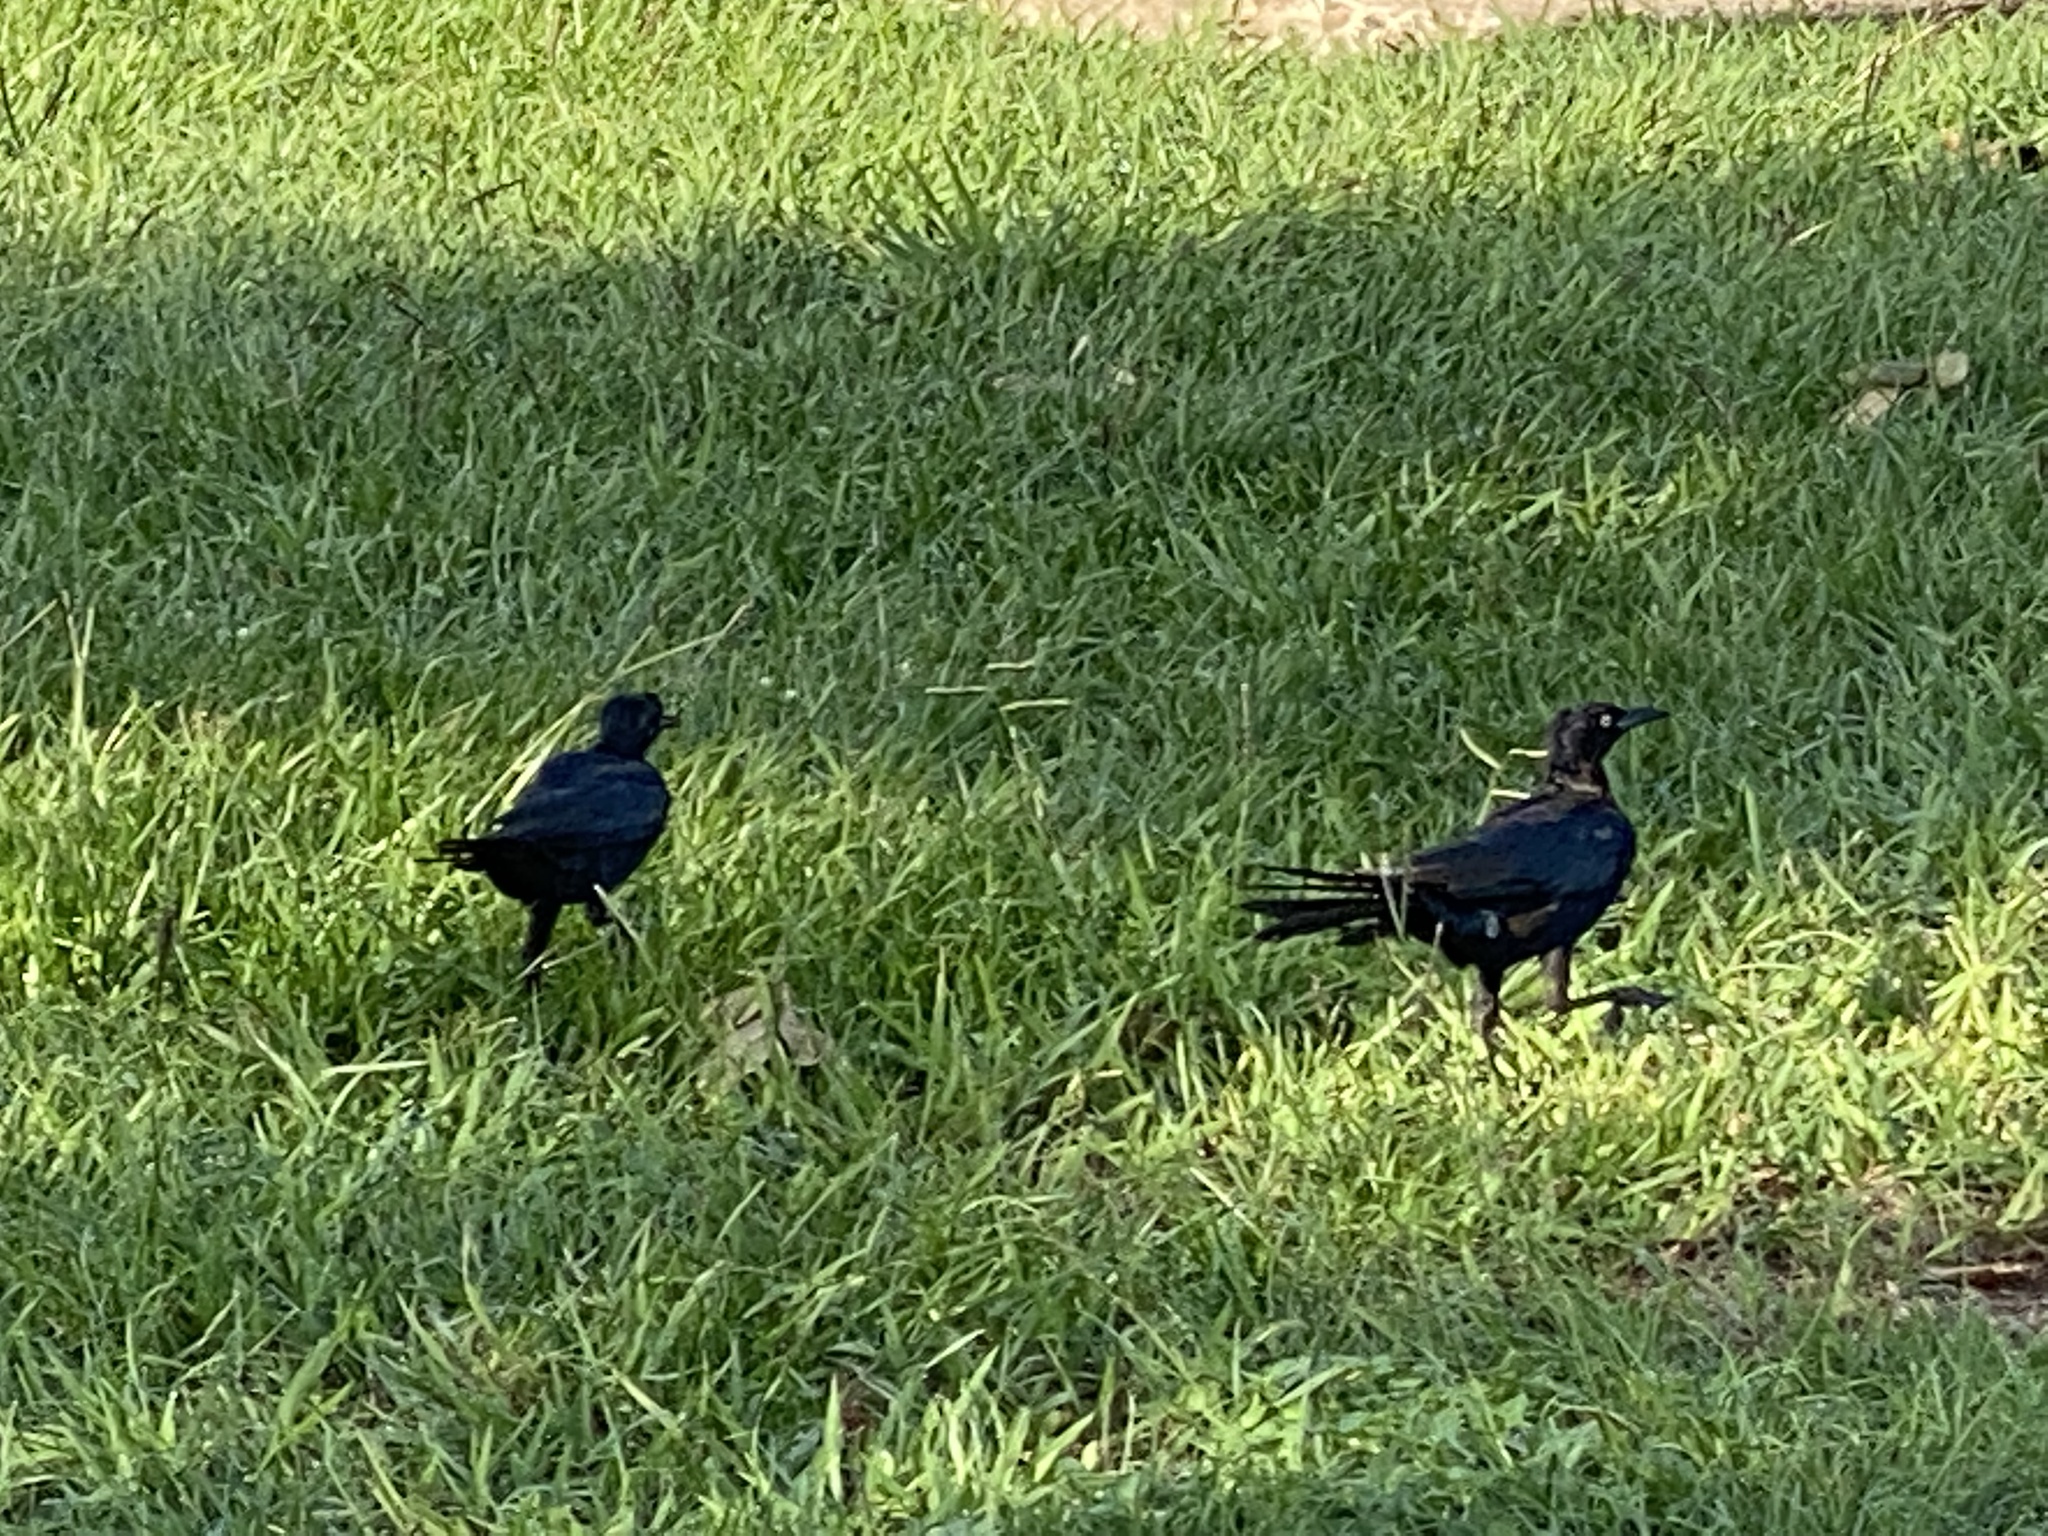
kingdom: Animalia
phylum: Chordata
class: Aves
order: Passeriformes
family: Icteridae
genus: Quiscalus
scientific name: Quiscalus mexicanus
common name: Great-tailed grackle
